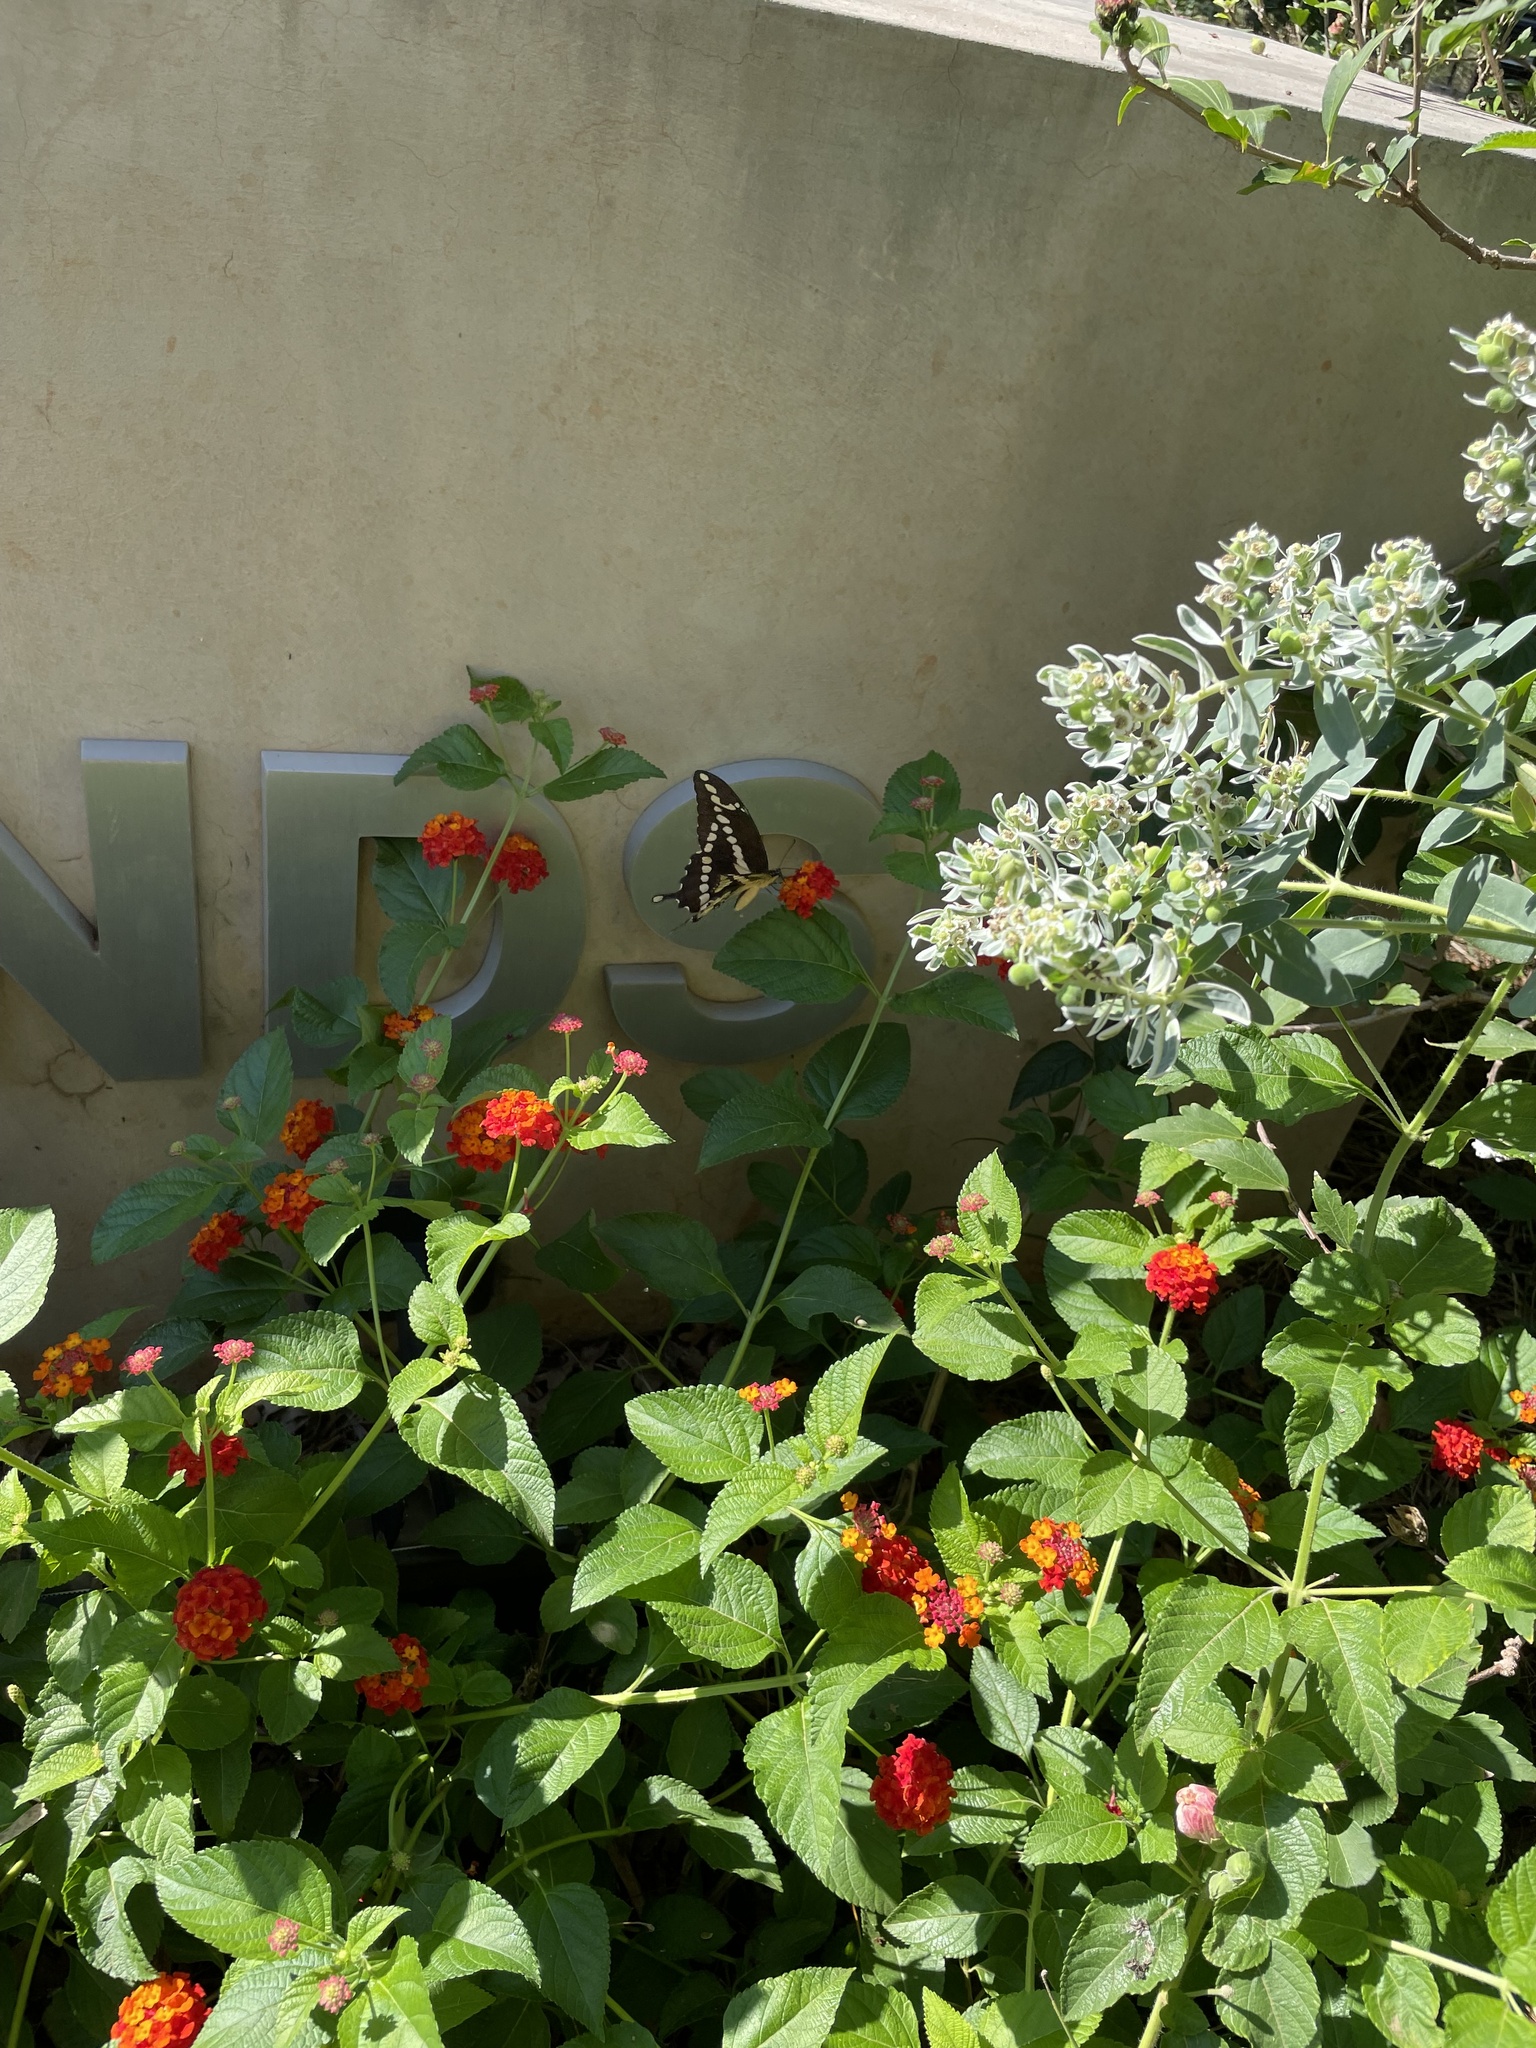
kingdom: Animalia
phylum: Arthropoda
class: Insecta
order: Lepidoptera
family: Papilionidae
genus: Papilio
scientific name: Papilio cresphontes
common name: Giant swallowtail
